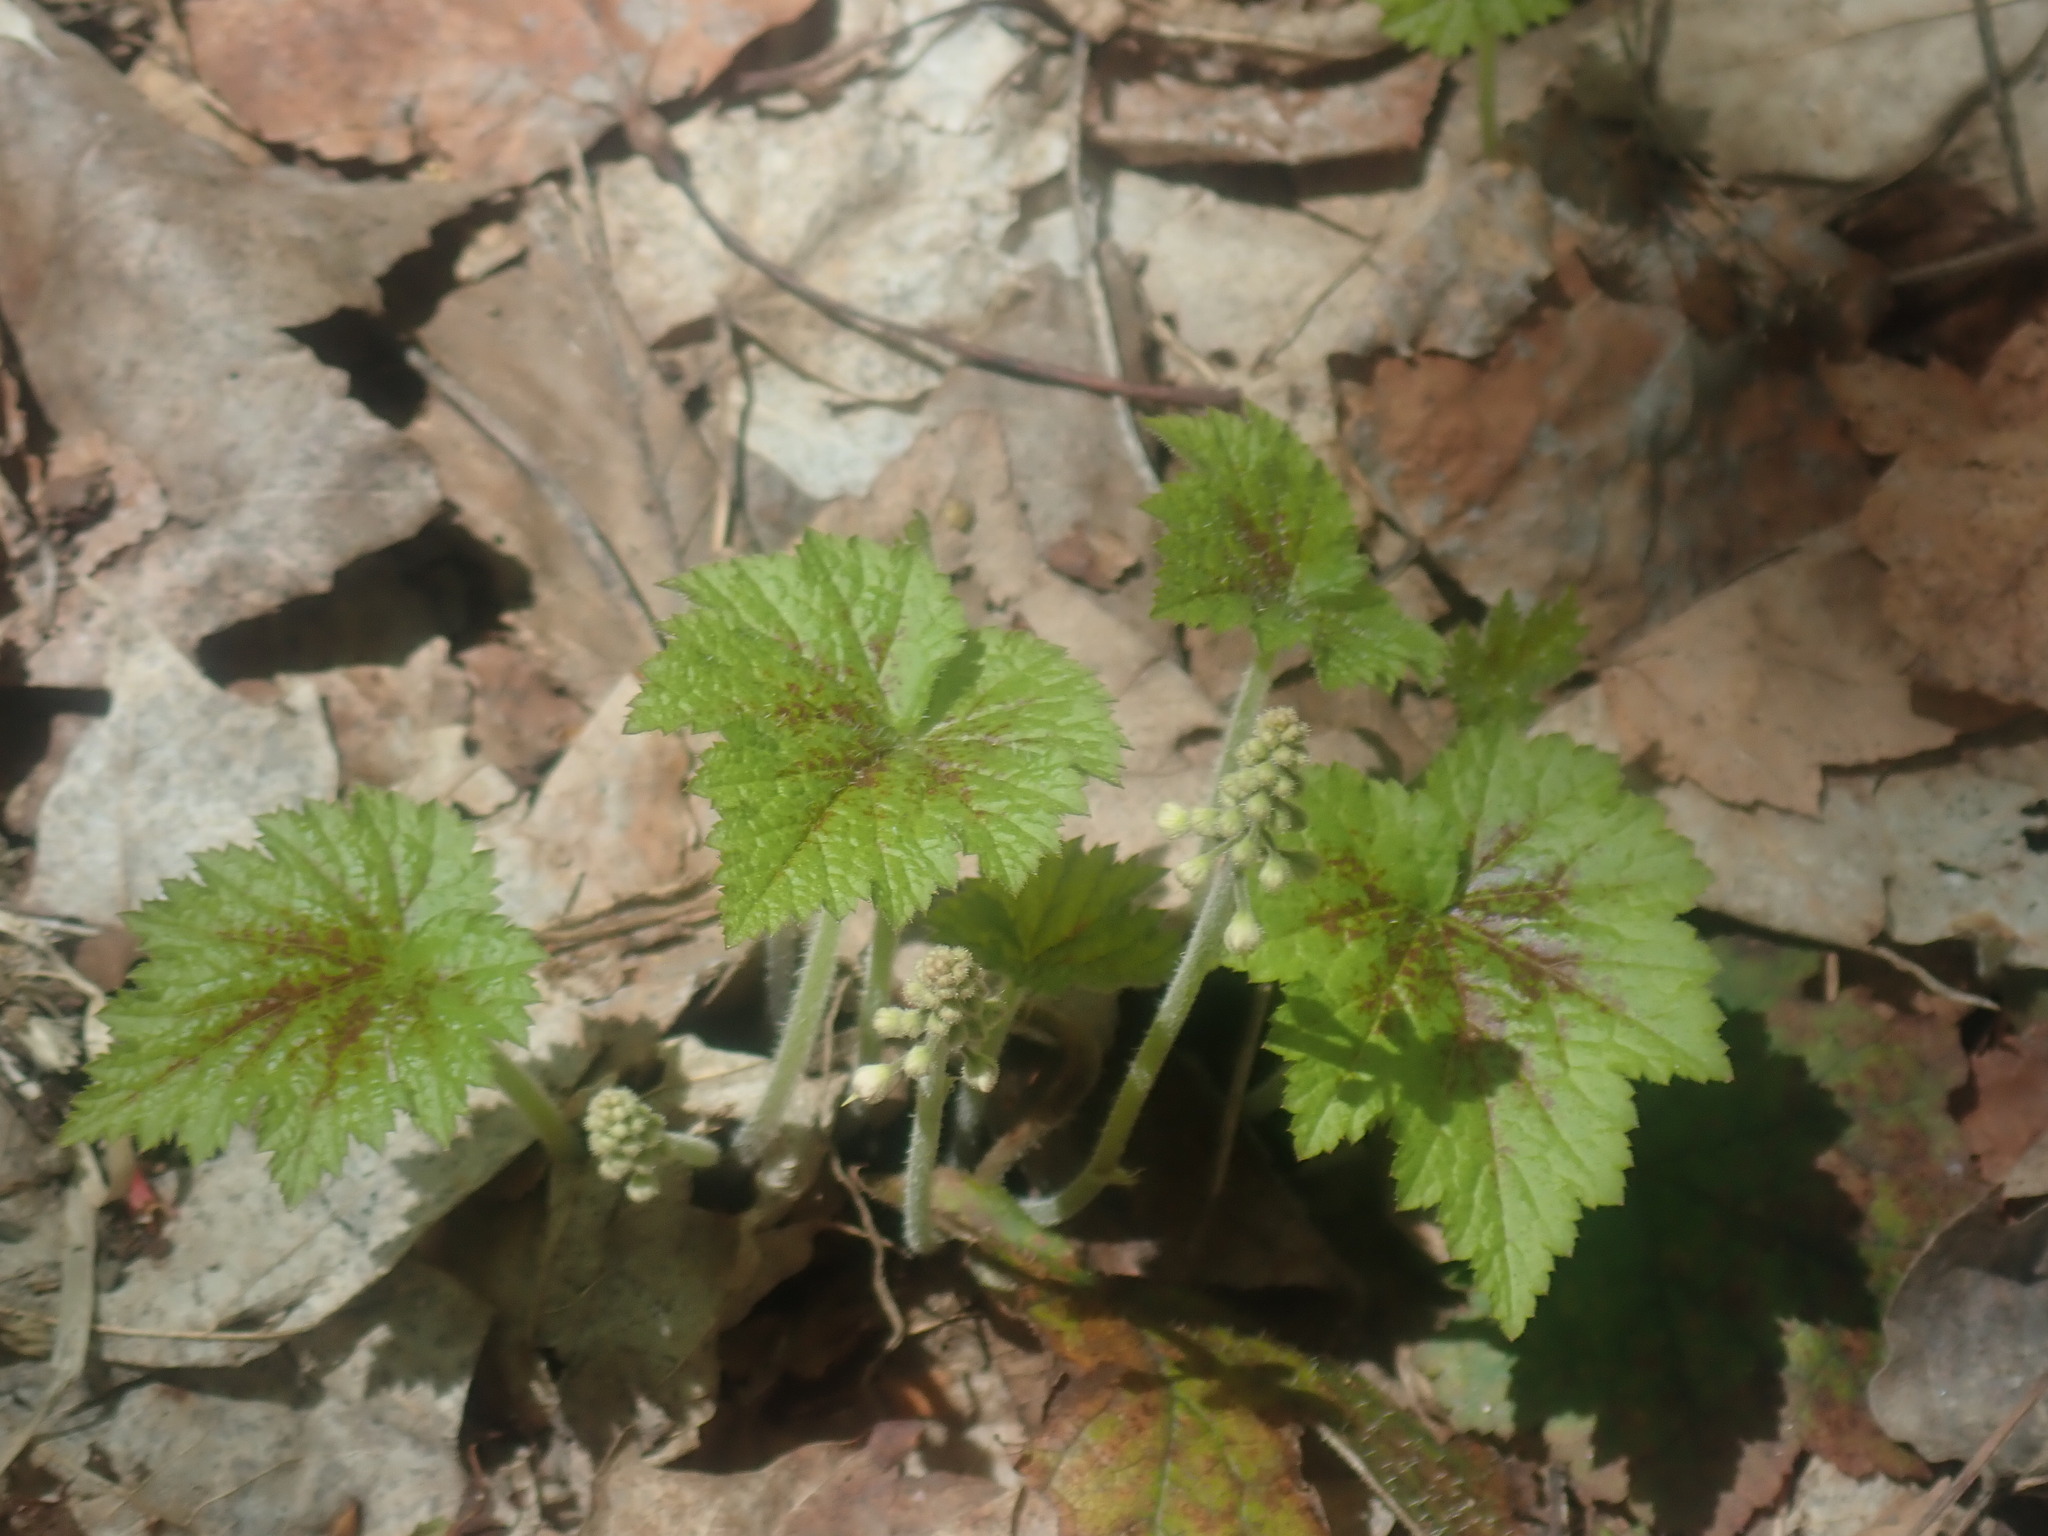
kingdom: Plantae
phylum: Tracheophyta
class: Magnoliopsida
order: Saxifragales
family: Saxifragaceae
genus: Tiarella
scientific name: Tiarella stolonifera
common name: Stoloniferous foamflower
